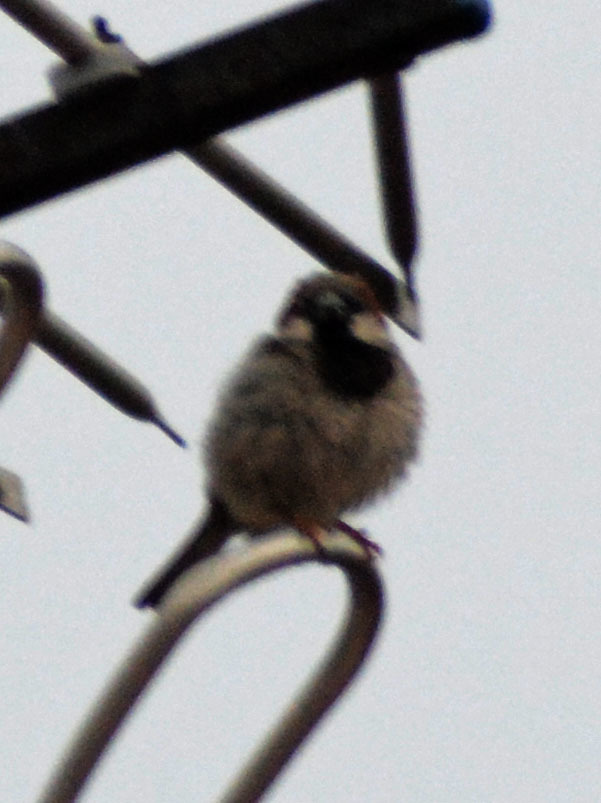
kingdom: Animalia
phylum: Chordata
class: Aves
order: Passeriformes
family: Passeridae
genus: Passer
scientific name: Passer domesticus
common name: House sparrow
